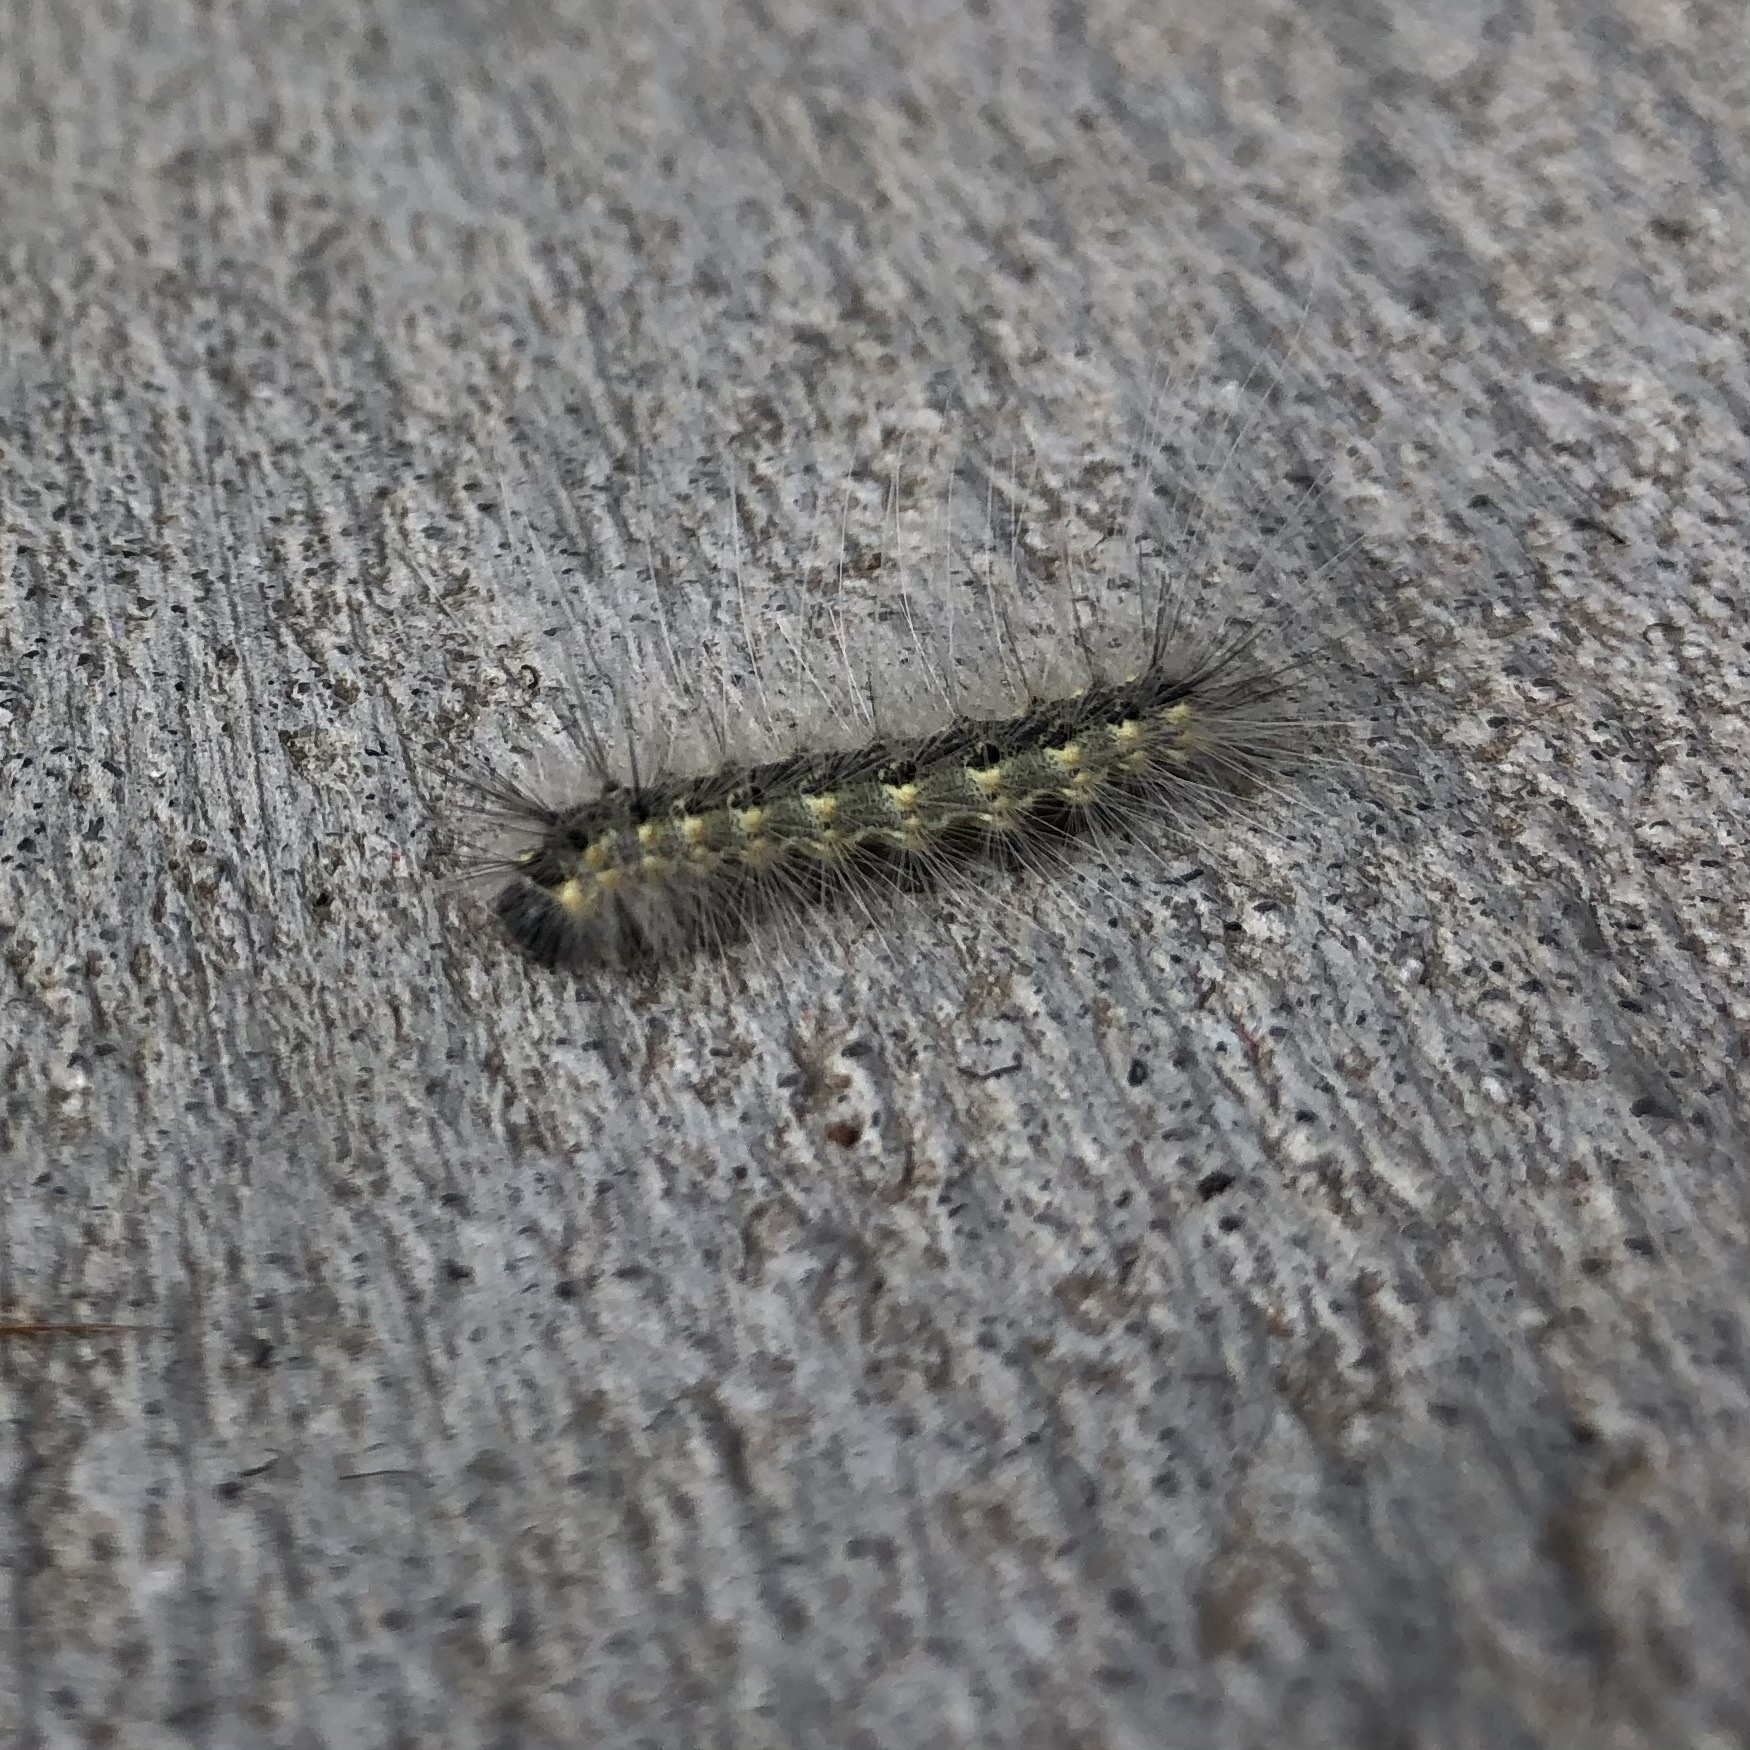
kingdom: Animalia
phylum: Arthropoda
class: Insecta
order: Lepidoptera
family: Erebidae
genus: Hyphantria
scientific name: Hyphantria cunea
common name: American white moth
